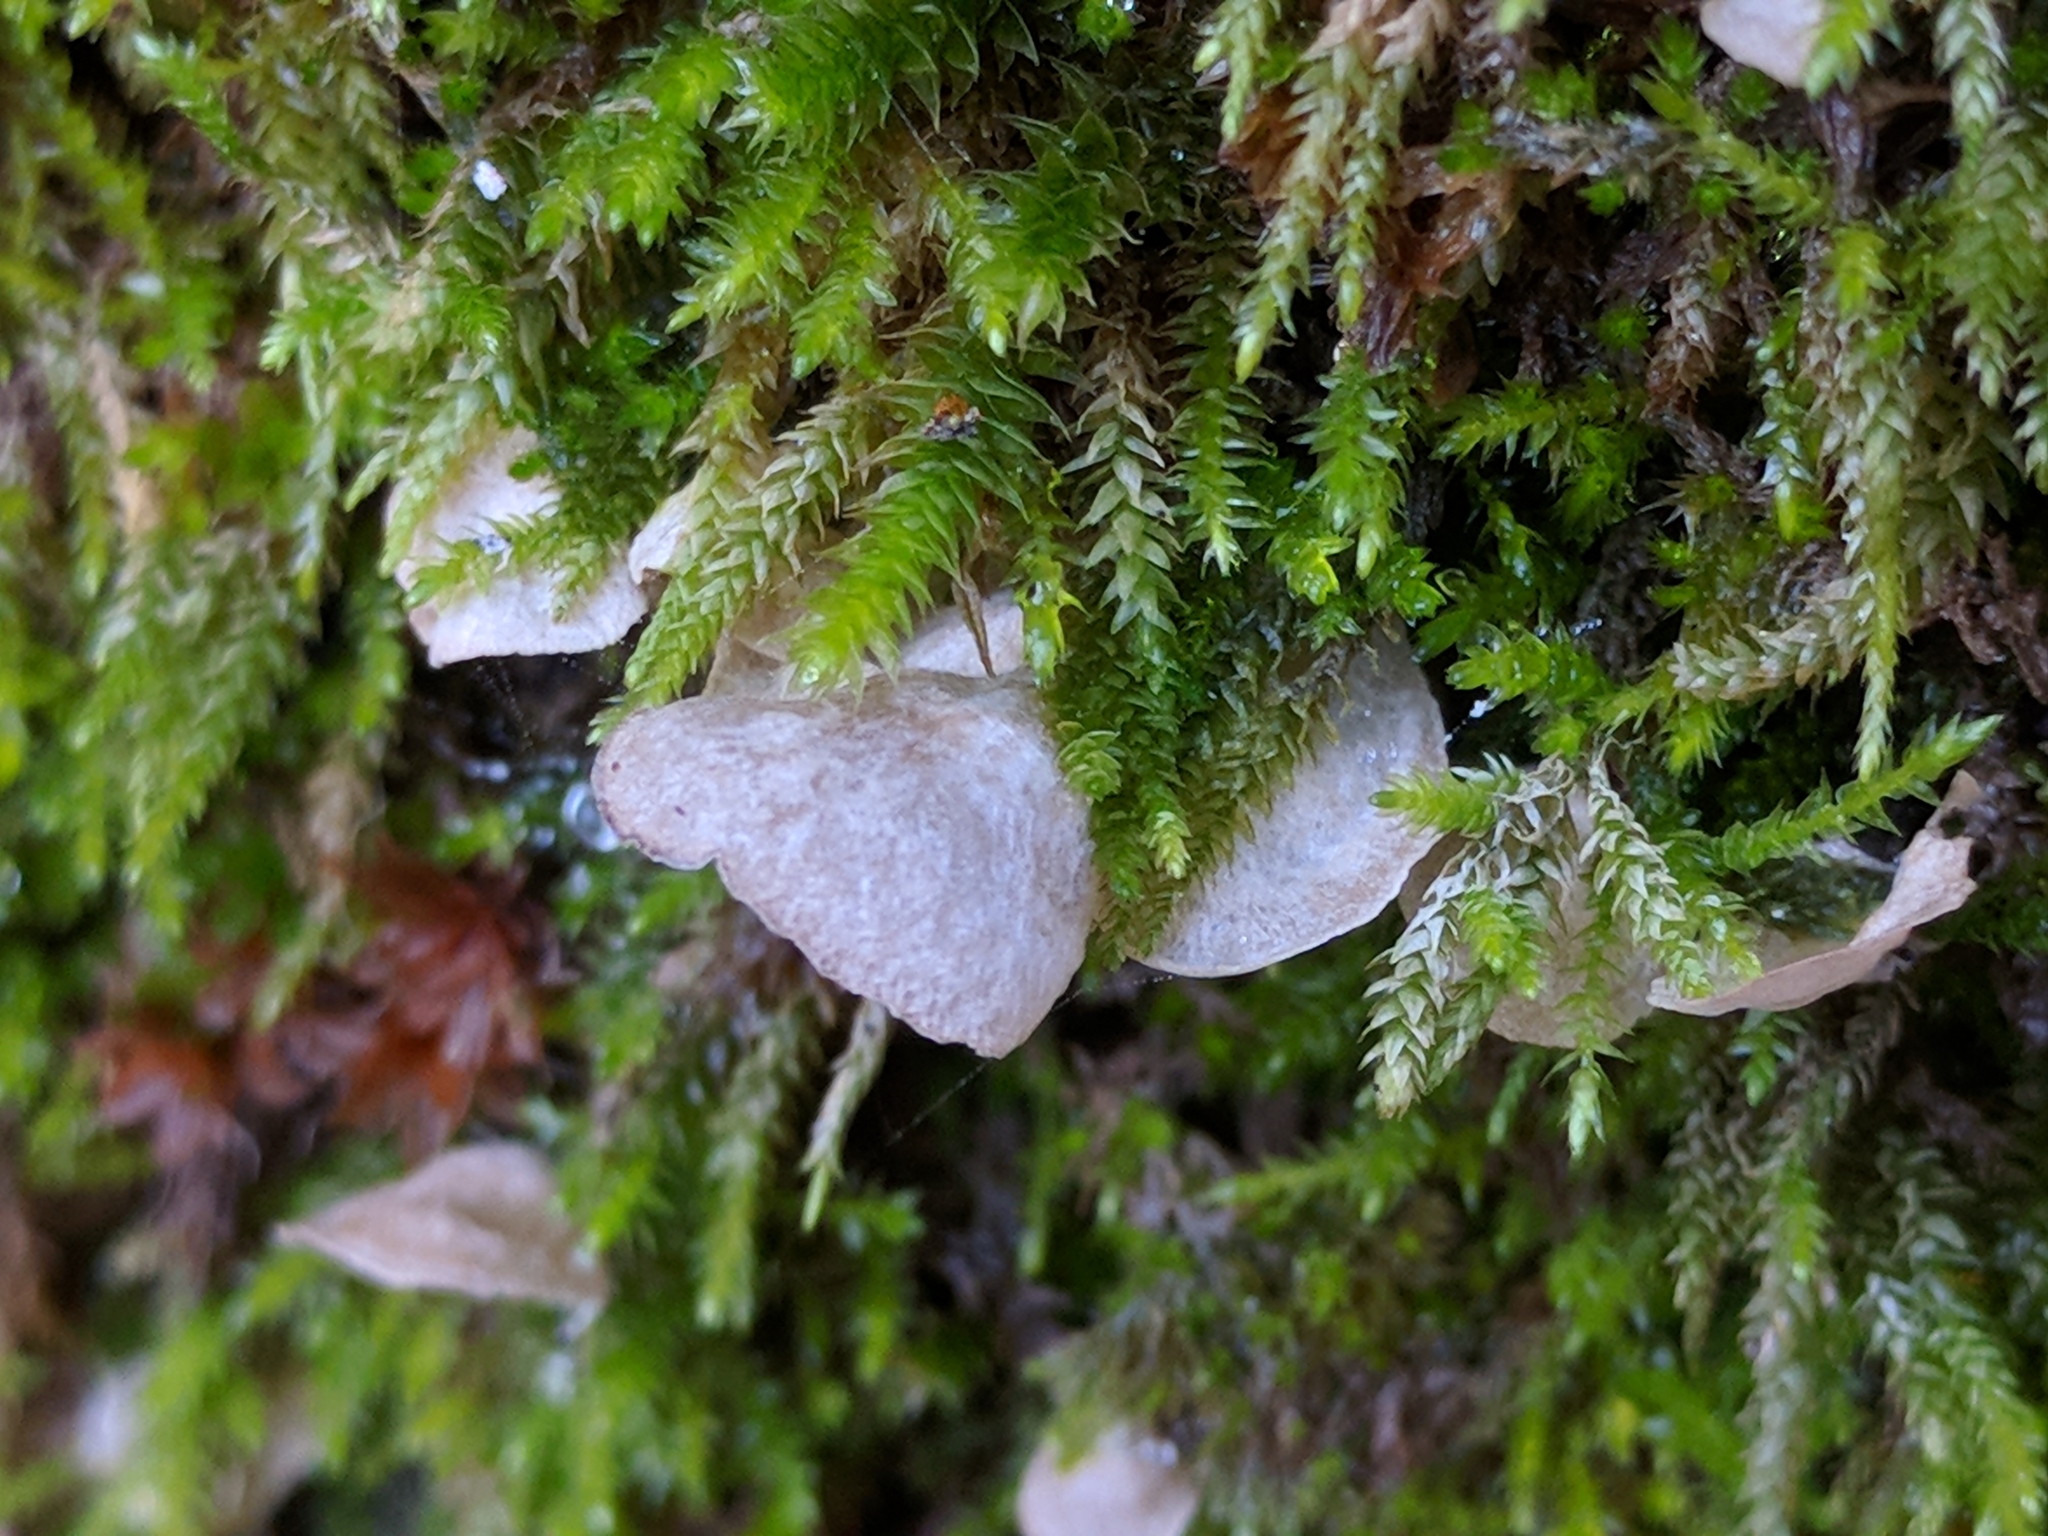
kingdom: Fungi
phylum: Basidiomycota
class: Agaricomycetes
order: Agaricales
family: Hygrophoraceae
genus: Arrhenia
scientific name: Arrhenia retiruga
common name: Small moss oysterling
